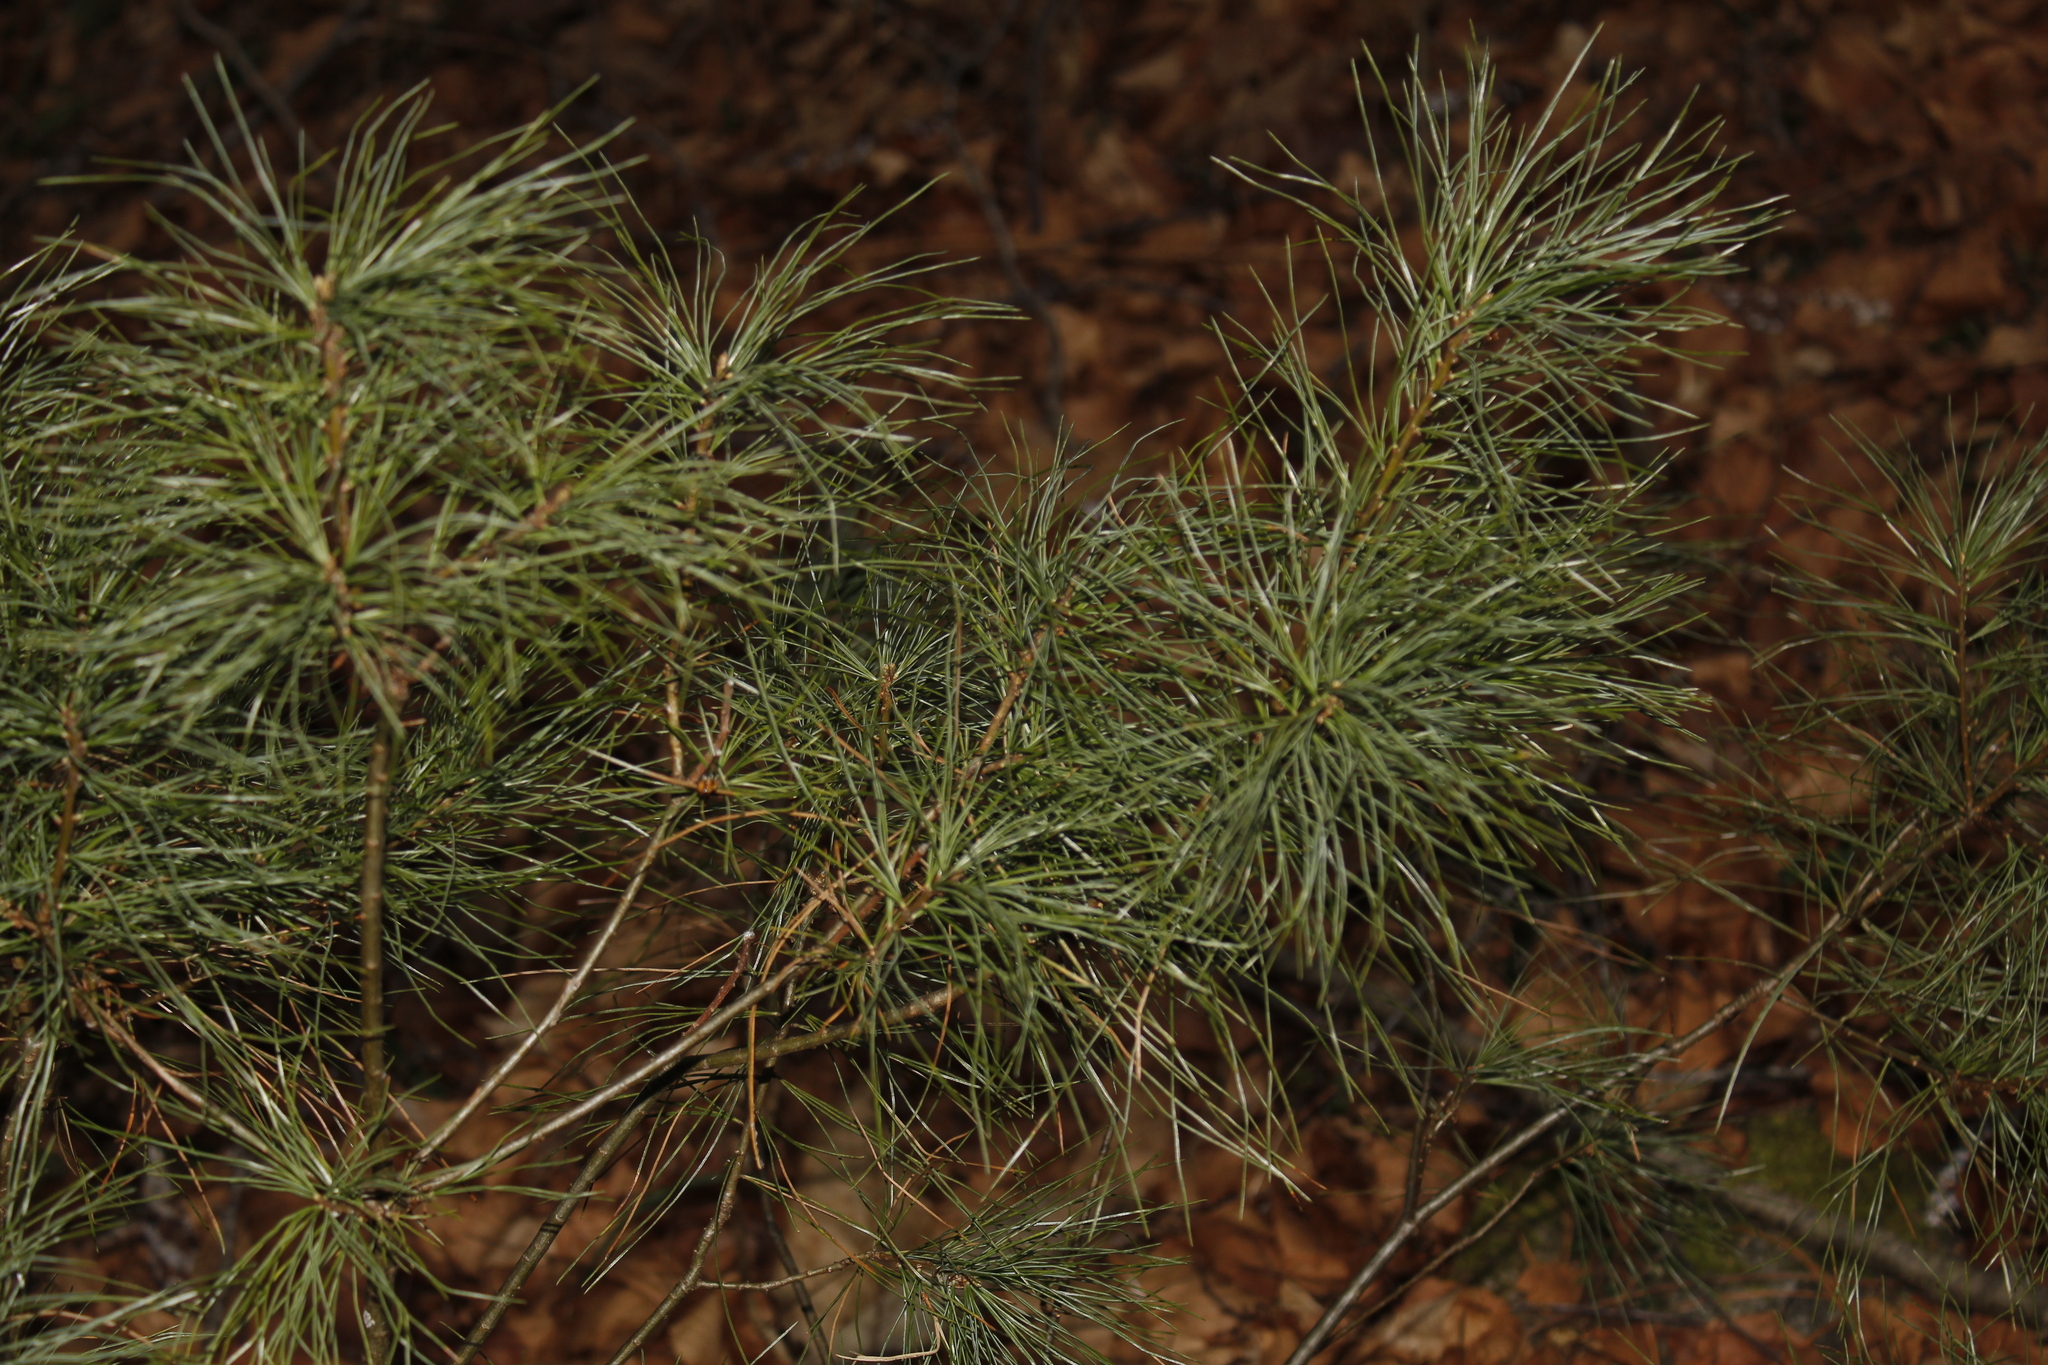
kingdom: Plantae
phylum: Tracheophyta
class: Pinopsida
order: Pinales
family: Pinaceae
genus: Pinus
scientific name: Pinus strobus
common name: Weymouth pine
